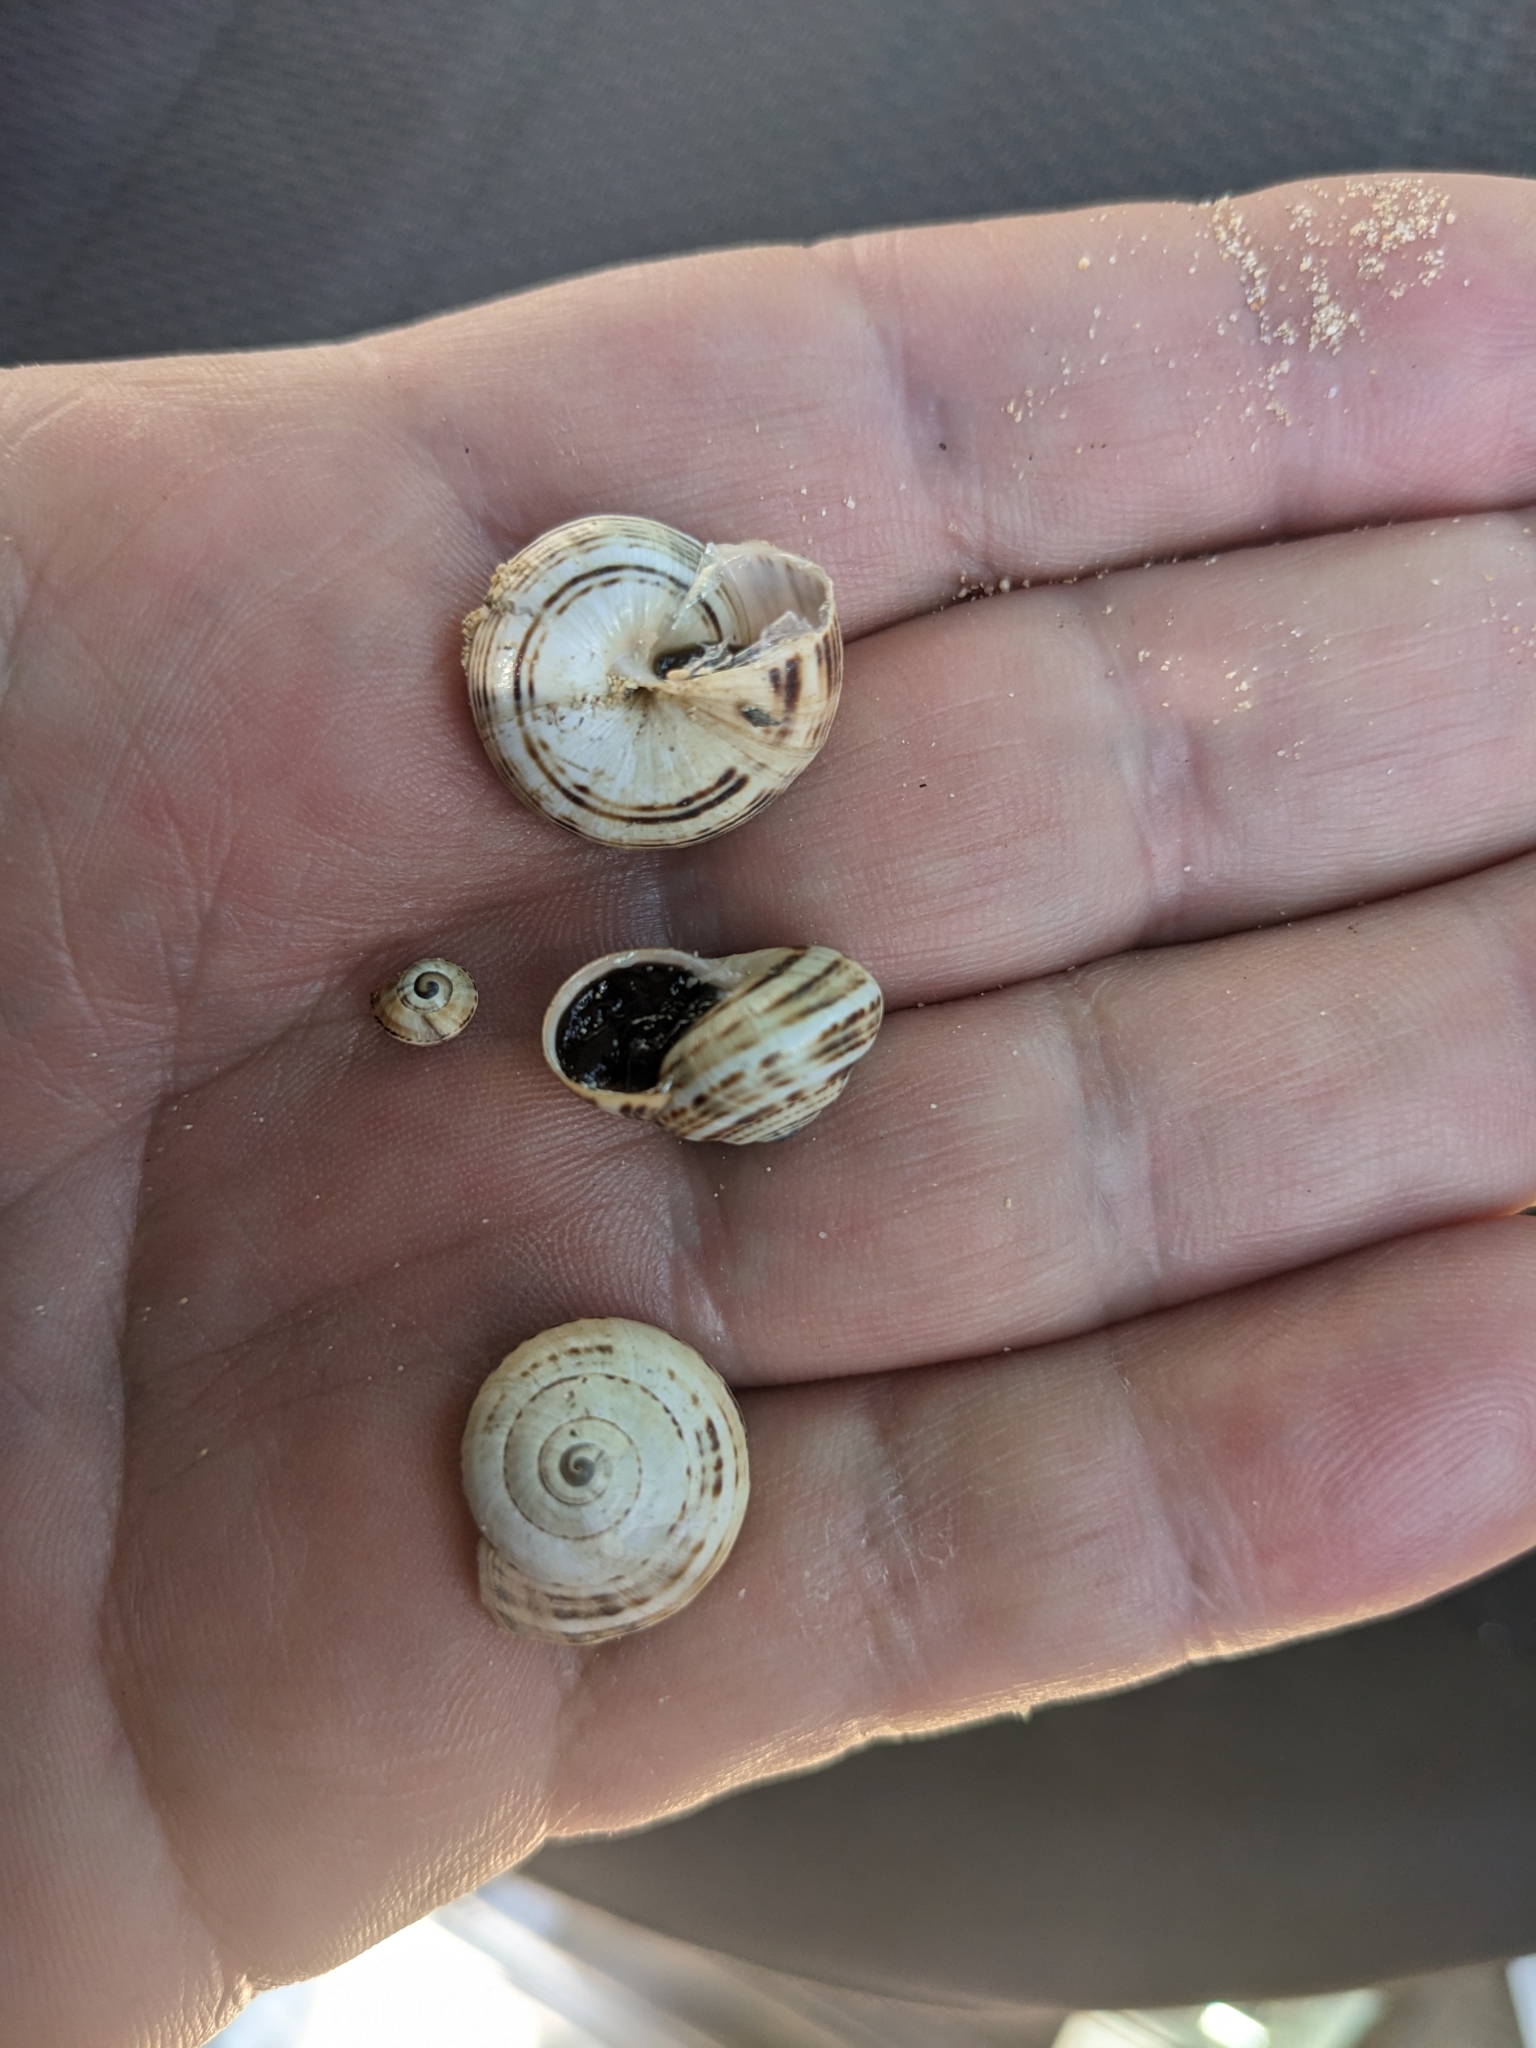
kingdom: Animalia
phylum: Mollusca
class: Gastropoda
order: Stylommatophora
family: Helicidae
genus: Theba
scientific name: Theba pisana
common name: White snail
